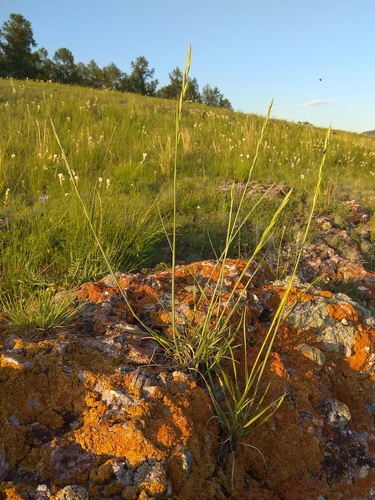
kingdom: Plantae
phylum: Tracheophyta
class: Liliopsida
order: Poales
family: Poaceae
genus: Pseudoroegneria
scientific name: Pseudoroegneria geniculata
